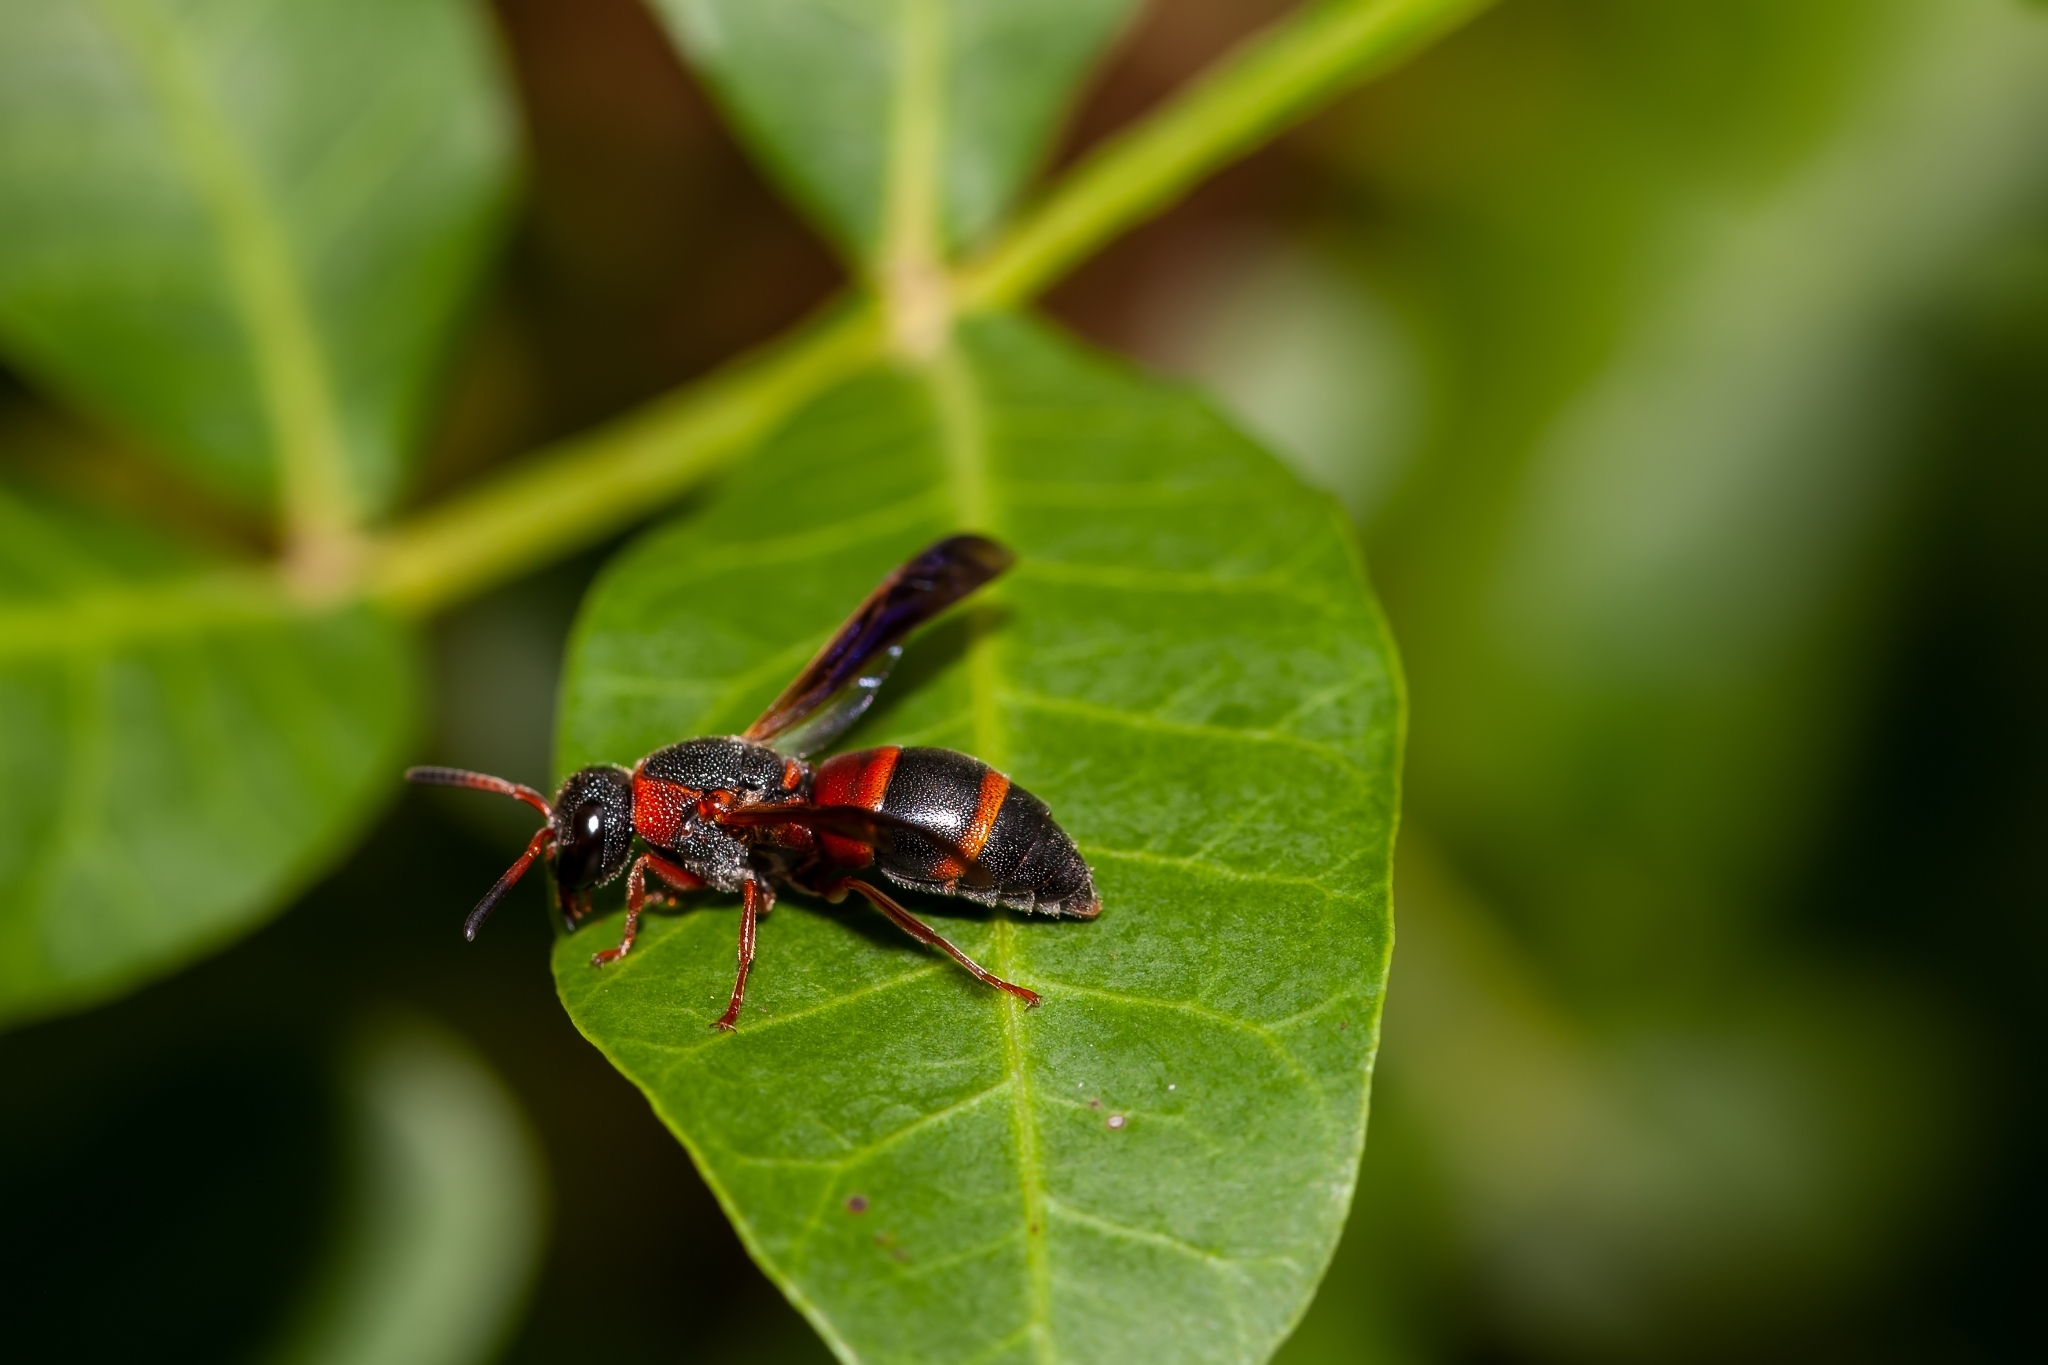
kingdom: Animalia
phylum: Arthropoda
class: Insecta
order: Hymenoptera
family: Eumenidae
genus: Pachodynerus
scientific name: Pachodynerus erynnis
